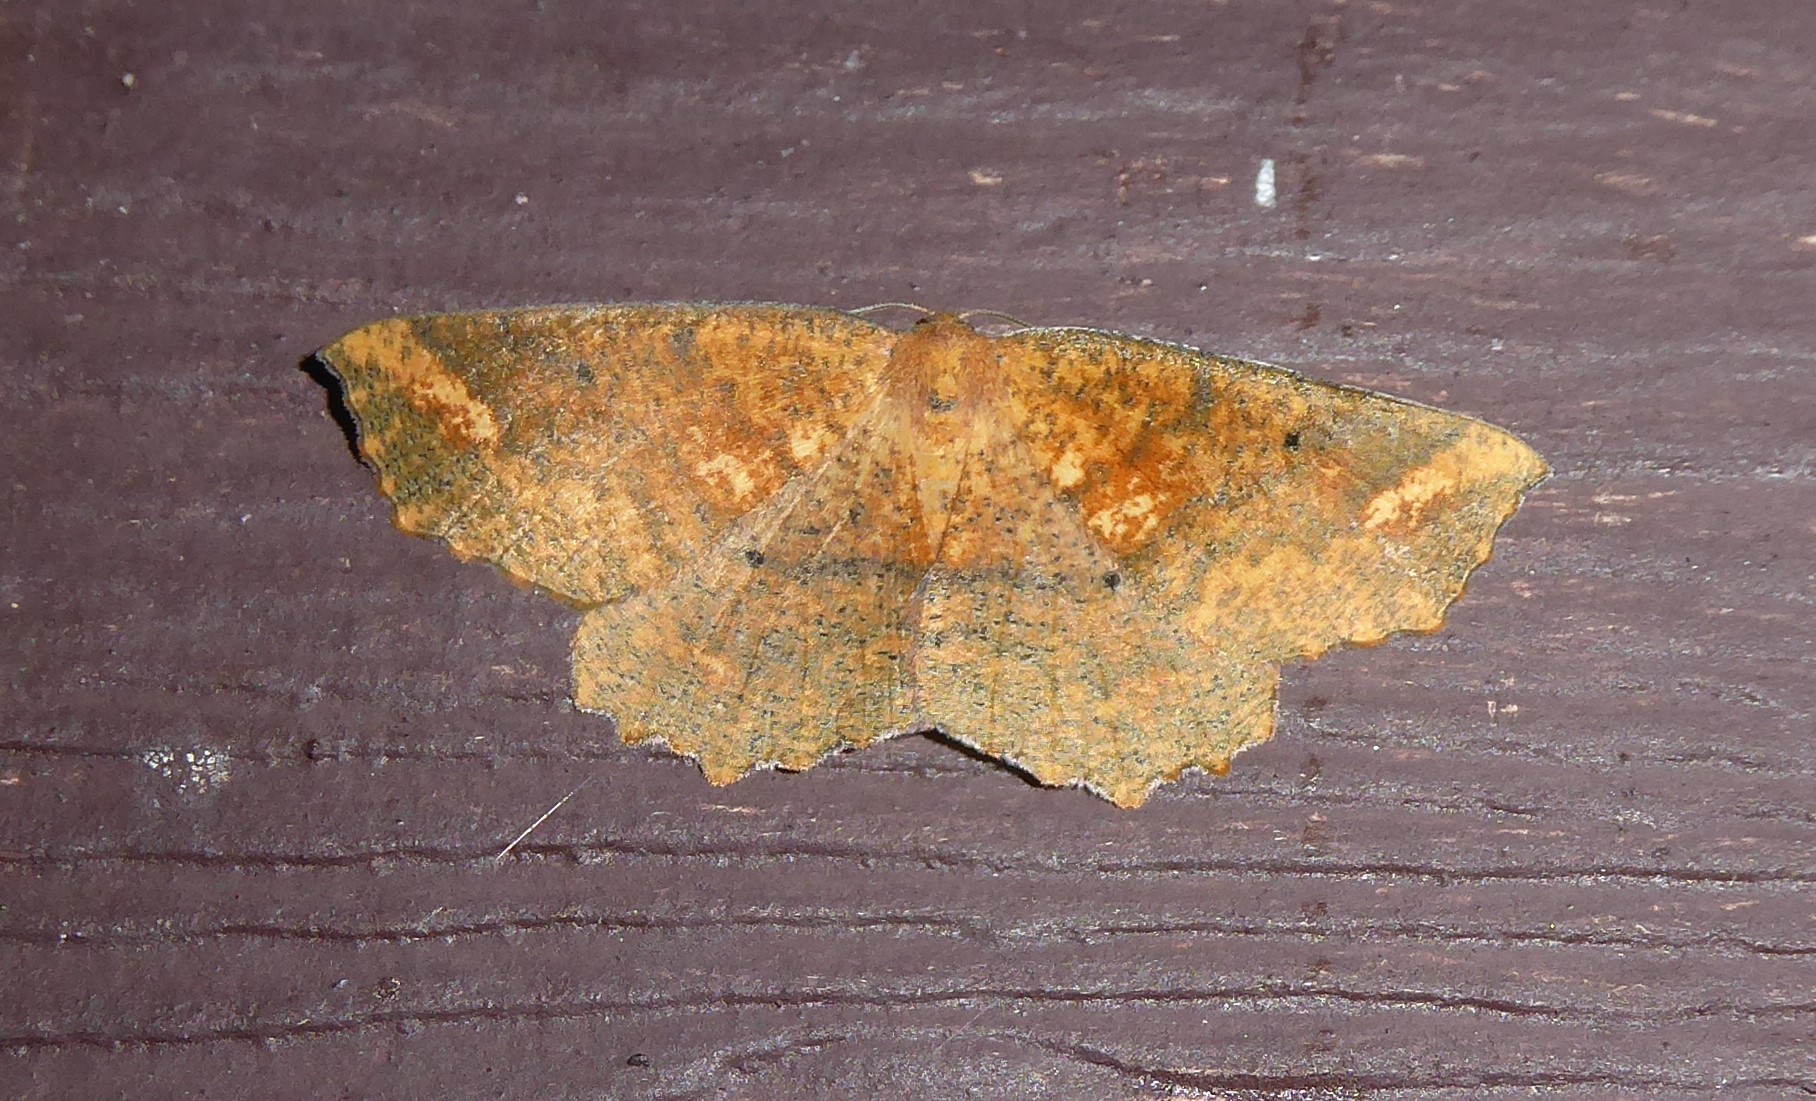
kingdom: Animalia
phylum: Arthropoda
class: Insecta
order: Lepidoptera
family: Geometridae
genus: Xyridacma
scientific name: Xyridacma ustaria
